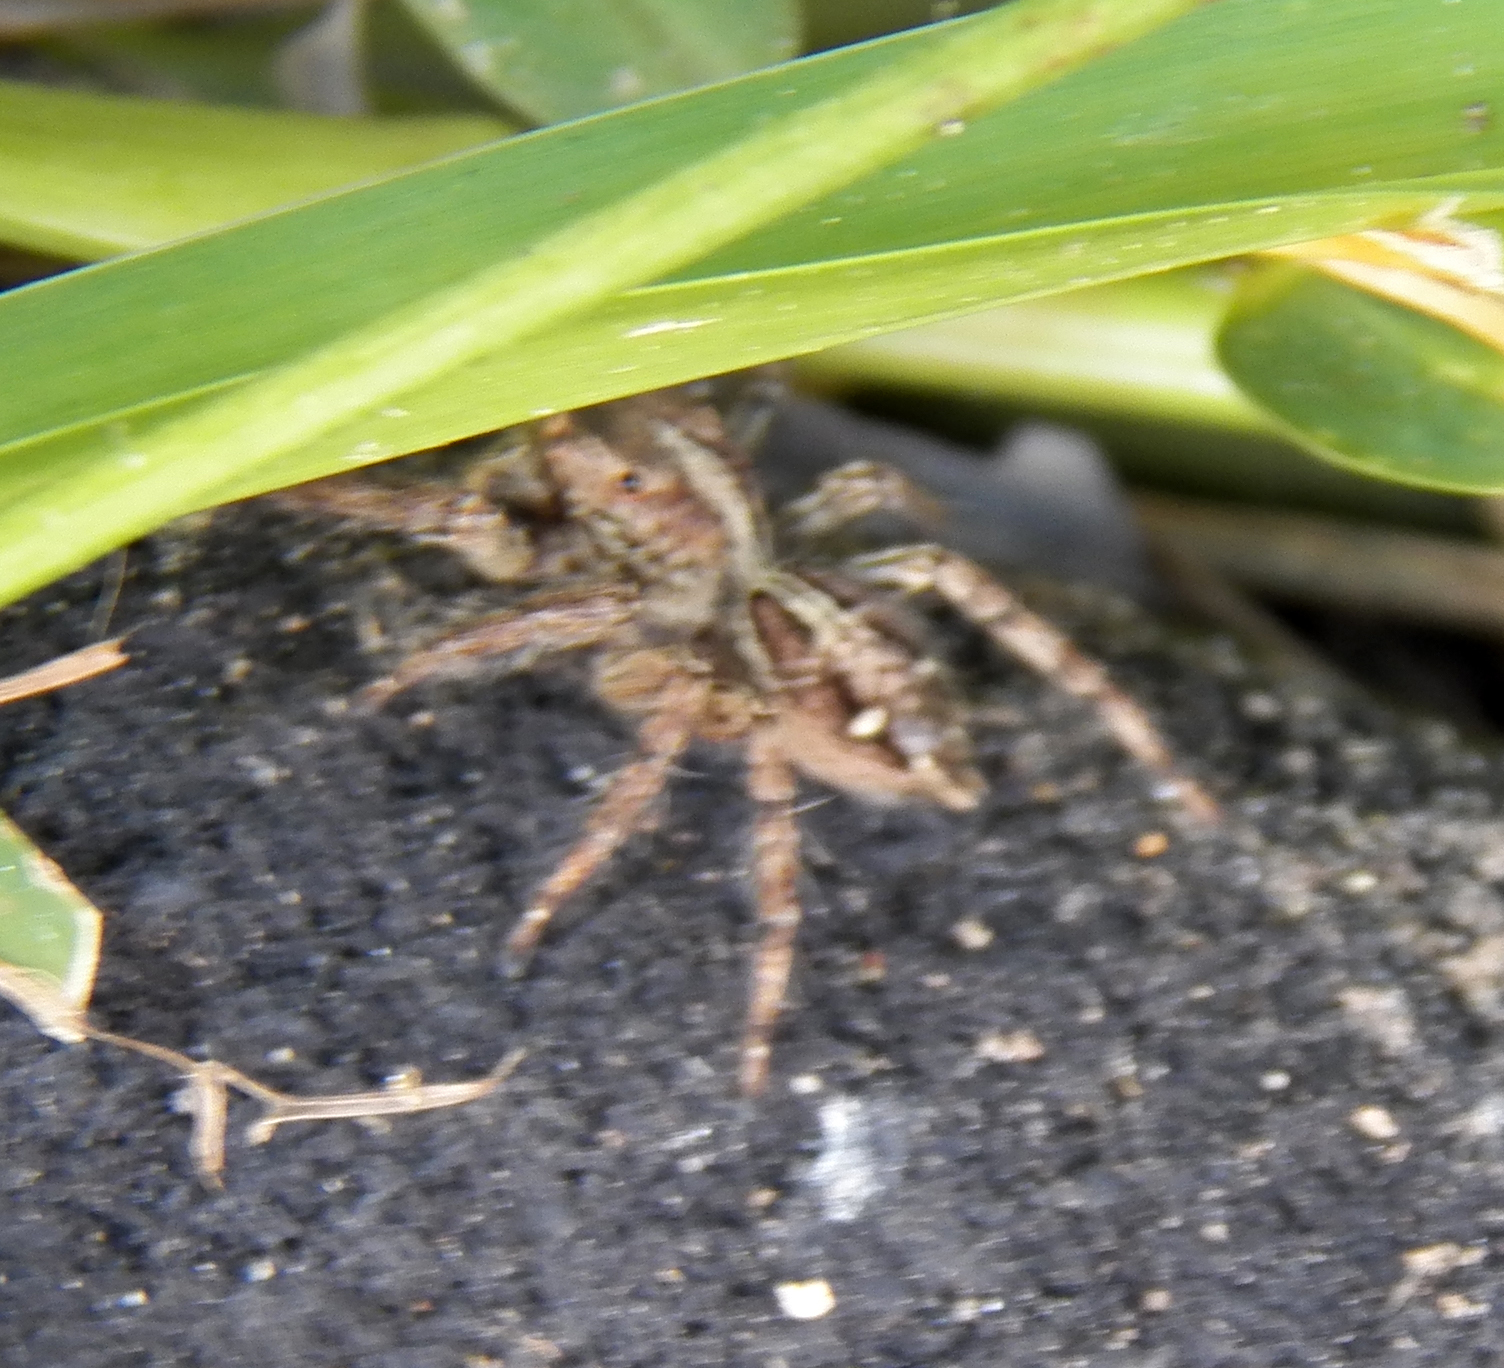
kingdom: Animalia
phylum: Arthropoda
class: Arachnida
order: Araneae
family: Salticidae
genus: Plexippus
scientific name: Plexippus paykulli
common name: Pantropical jumper
